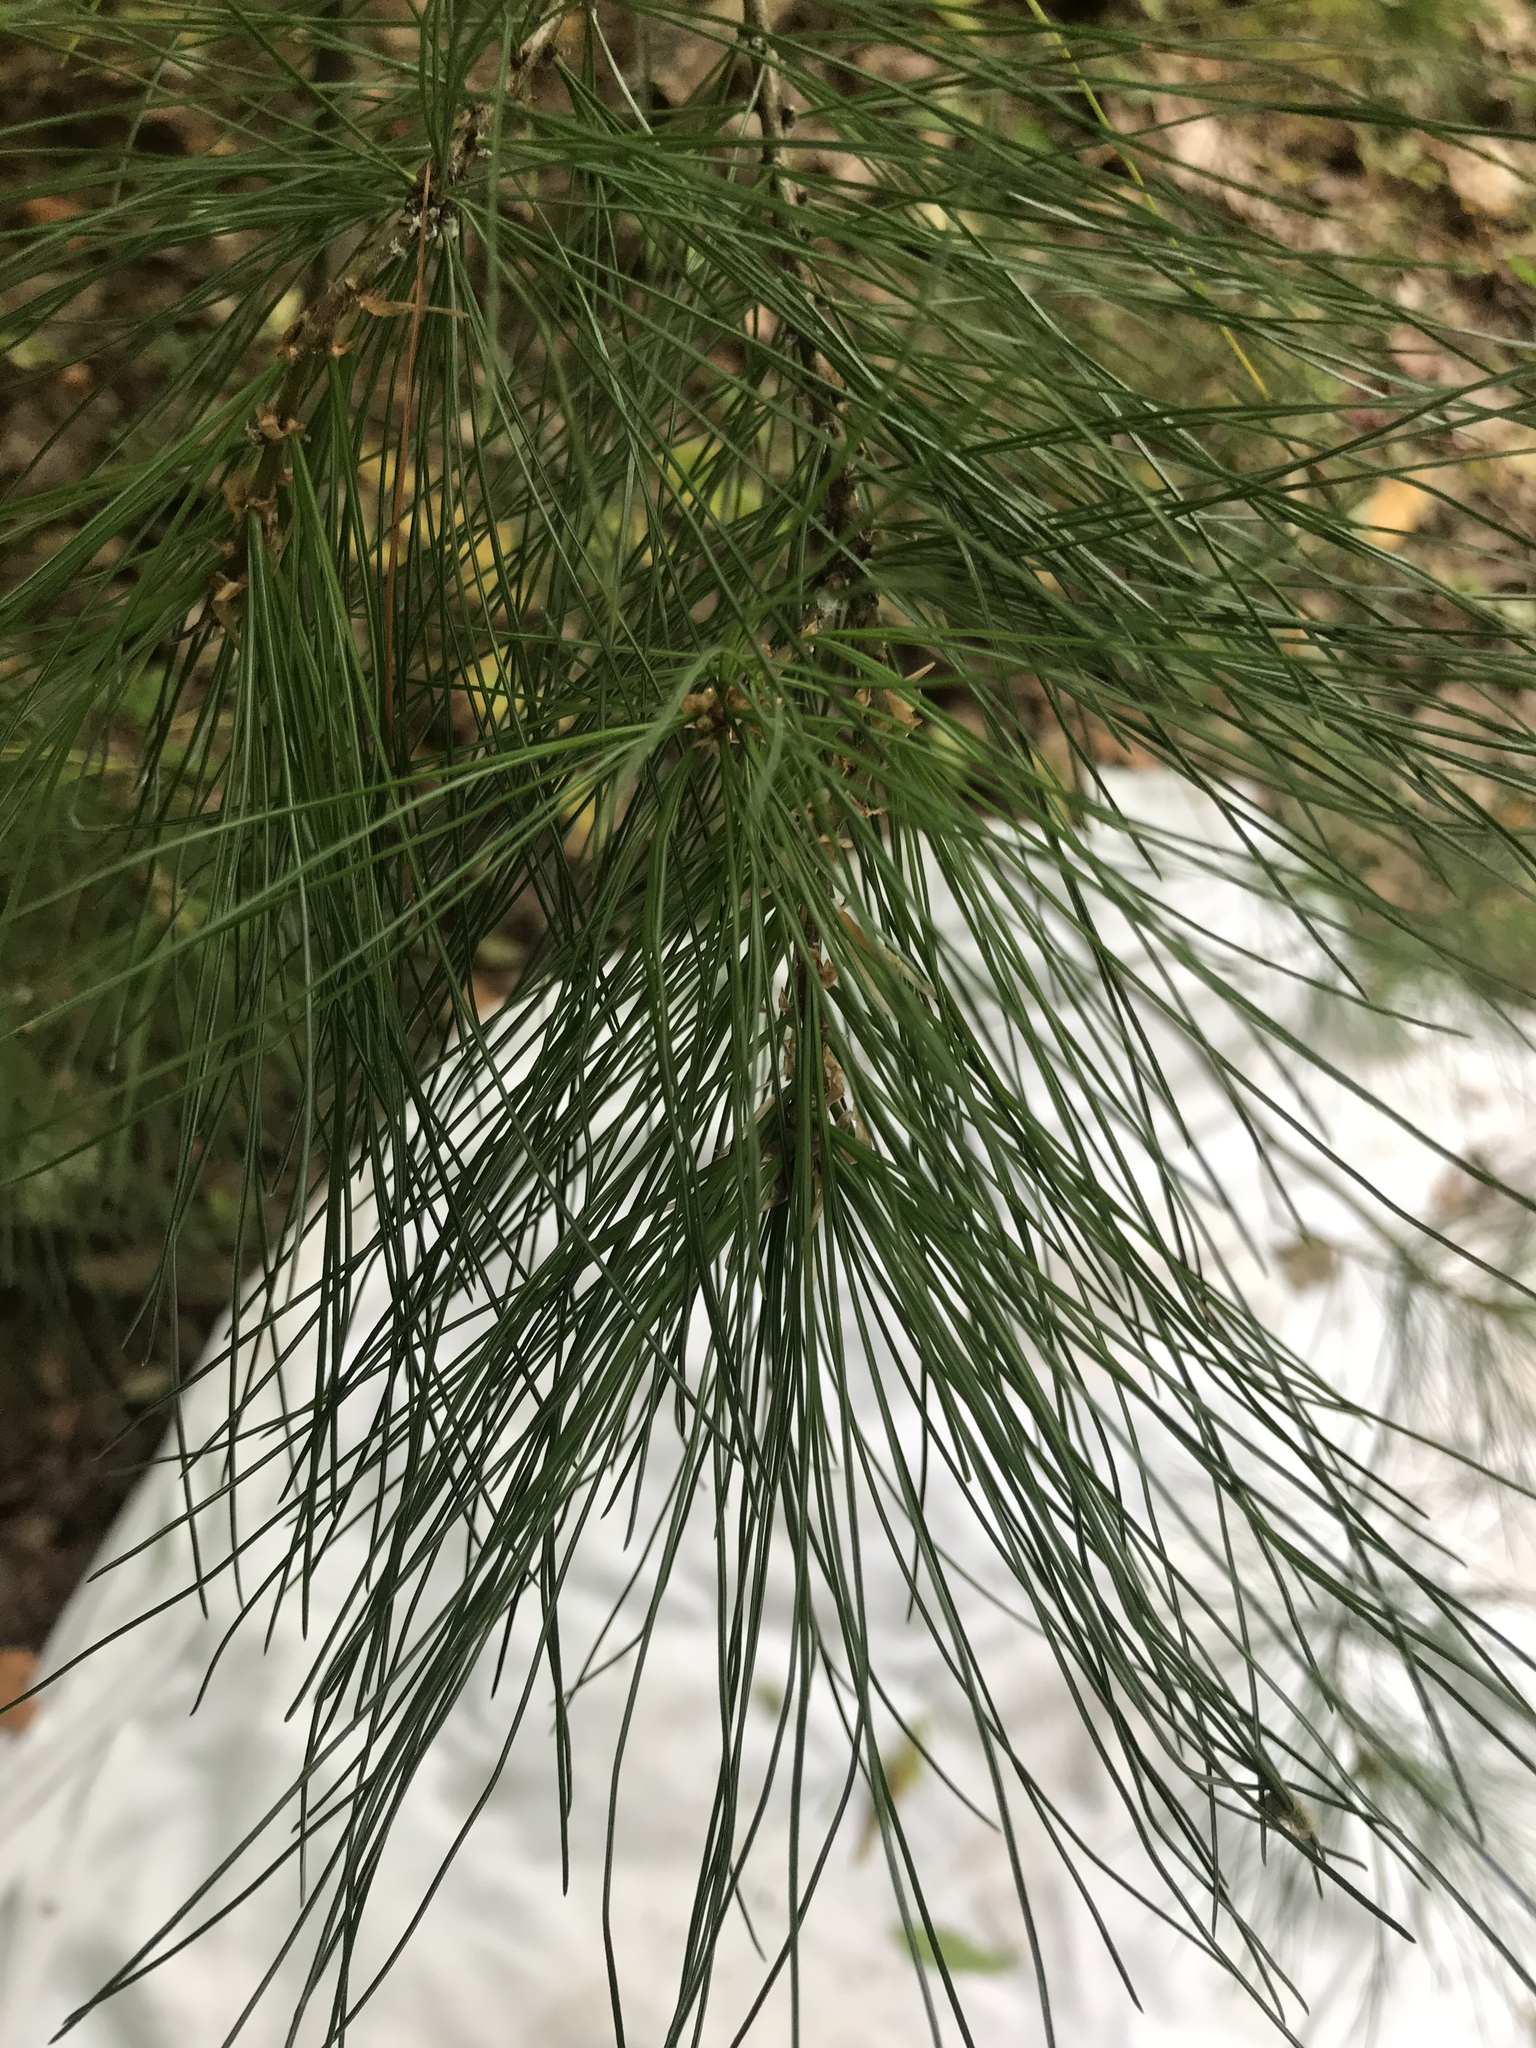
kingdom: Plantae
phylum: Tracheophyta
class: Pinopsida
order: Pinales
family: Pinaceae
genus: Pinus
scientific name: Pinus strobus
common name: Weymouth pine
